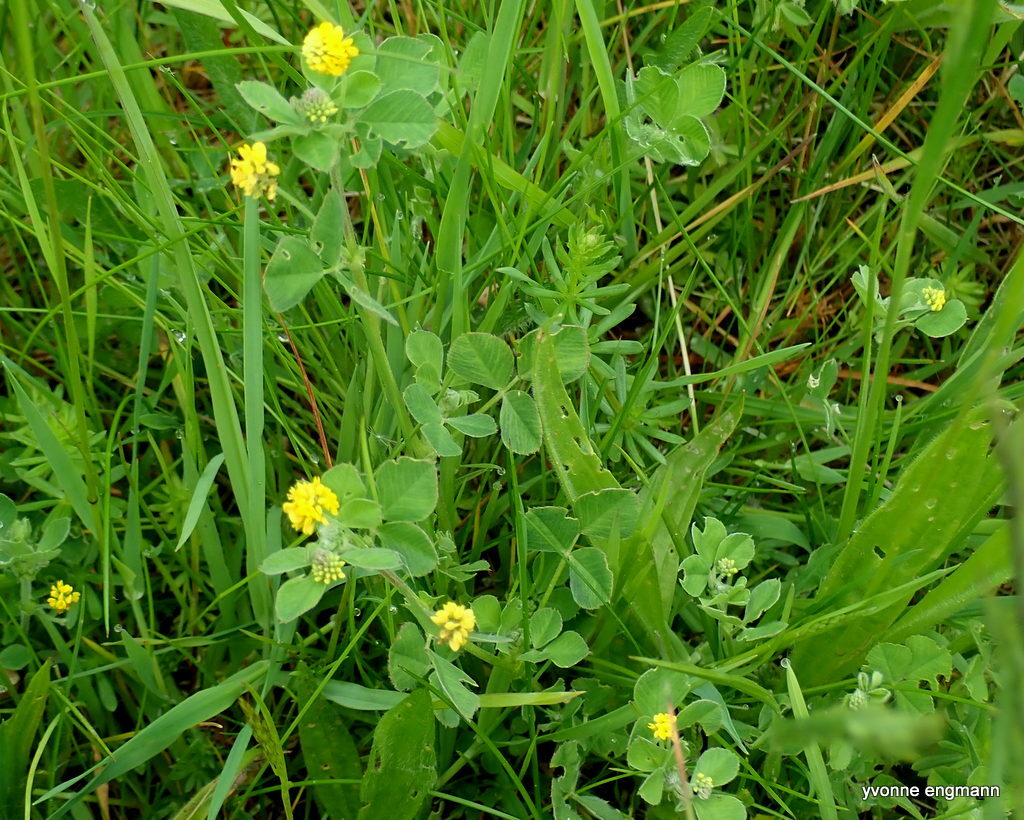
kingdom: Plantae
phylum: Tracheophyta
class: Magnoliopsida
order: Fabales
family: Fabaceae
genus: Medicago
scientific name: Medicago lupulina
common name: Black medick
